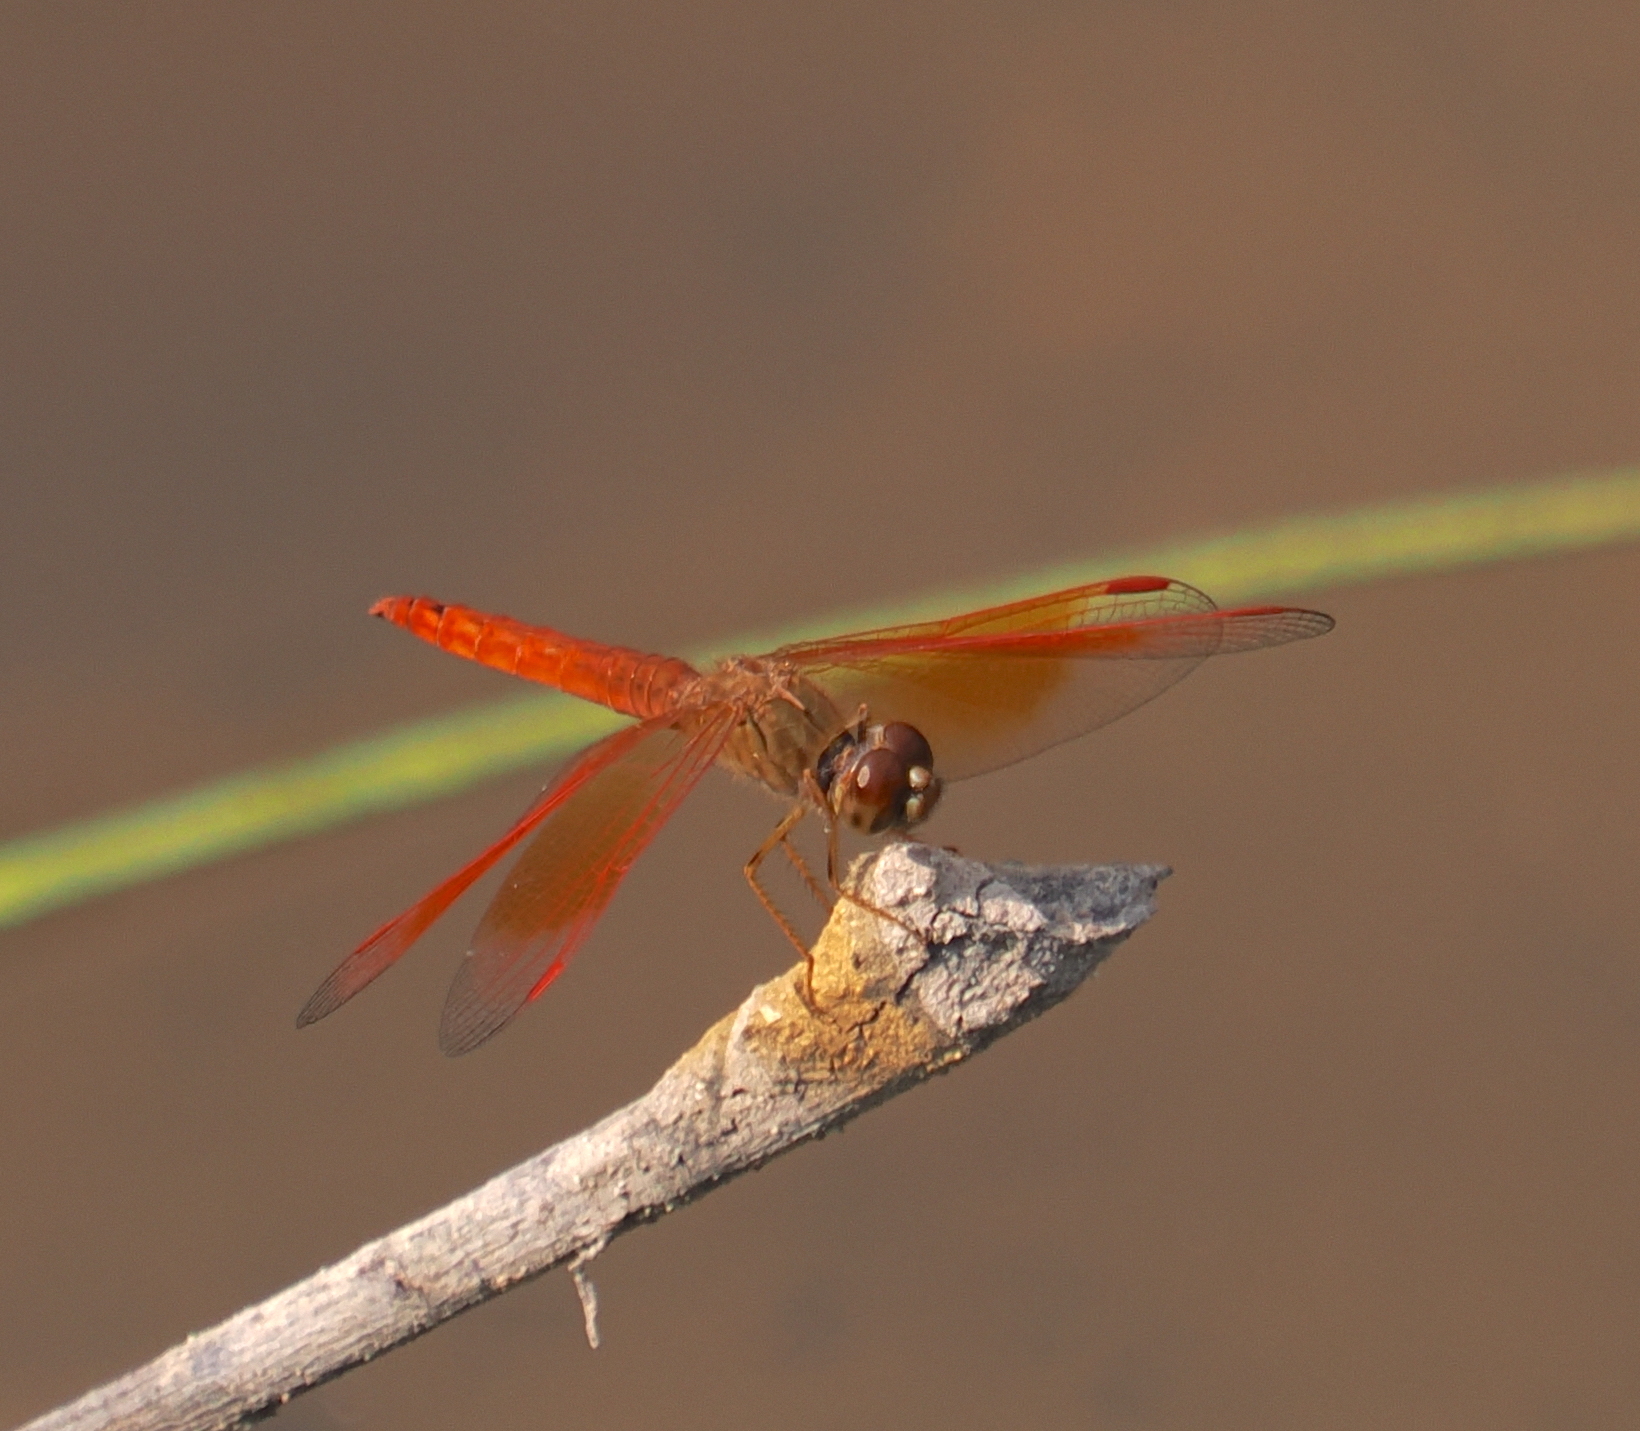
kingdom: Animalia
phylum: Arthropoda
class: Insecta
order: Odonata
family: Libellulidae
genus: Brachythemis
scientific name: Brachythemis contaminata
